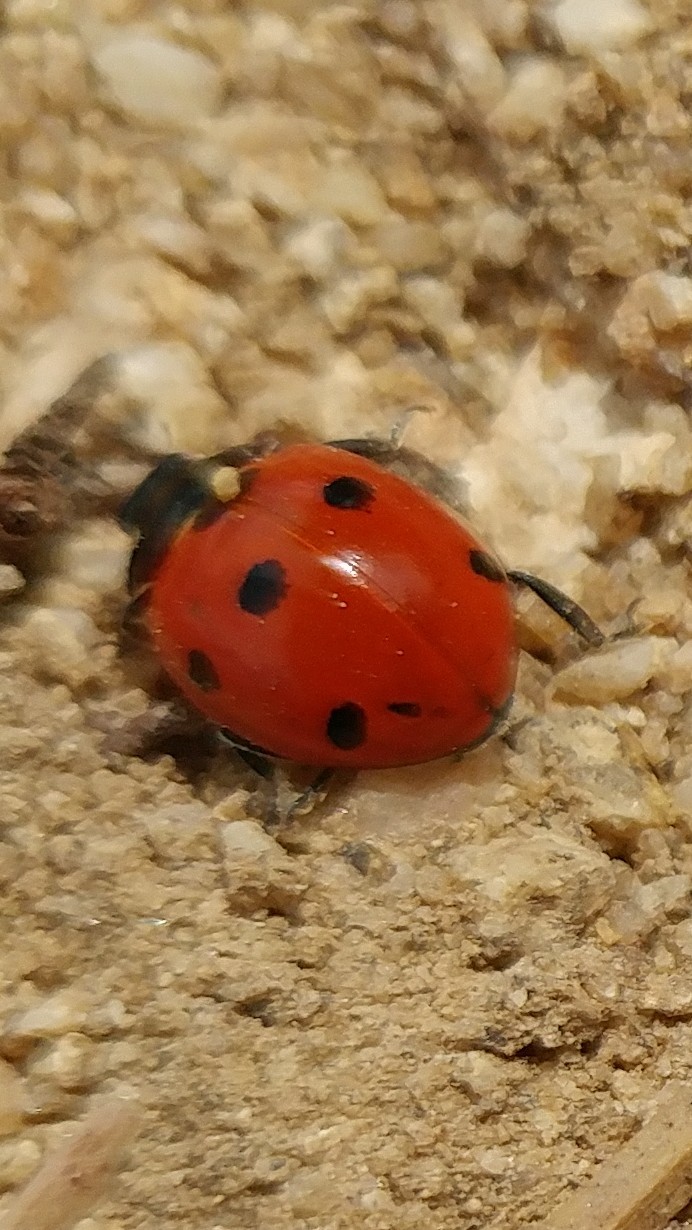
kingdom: Animalia
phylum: Arthropoda
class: Insecta
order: Coleoptera
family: Coccinellidae
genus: Coccinella
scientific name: Coccinella septempunctata
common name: Sevenspotted lady beetle
